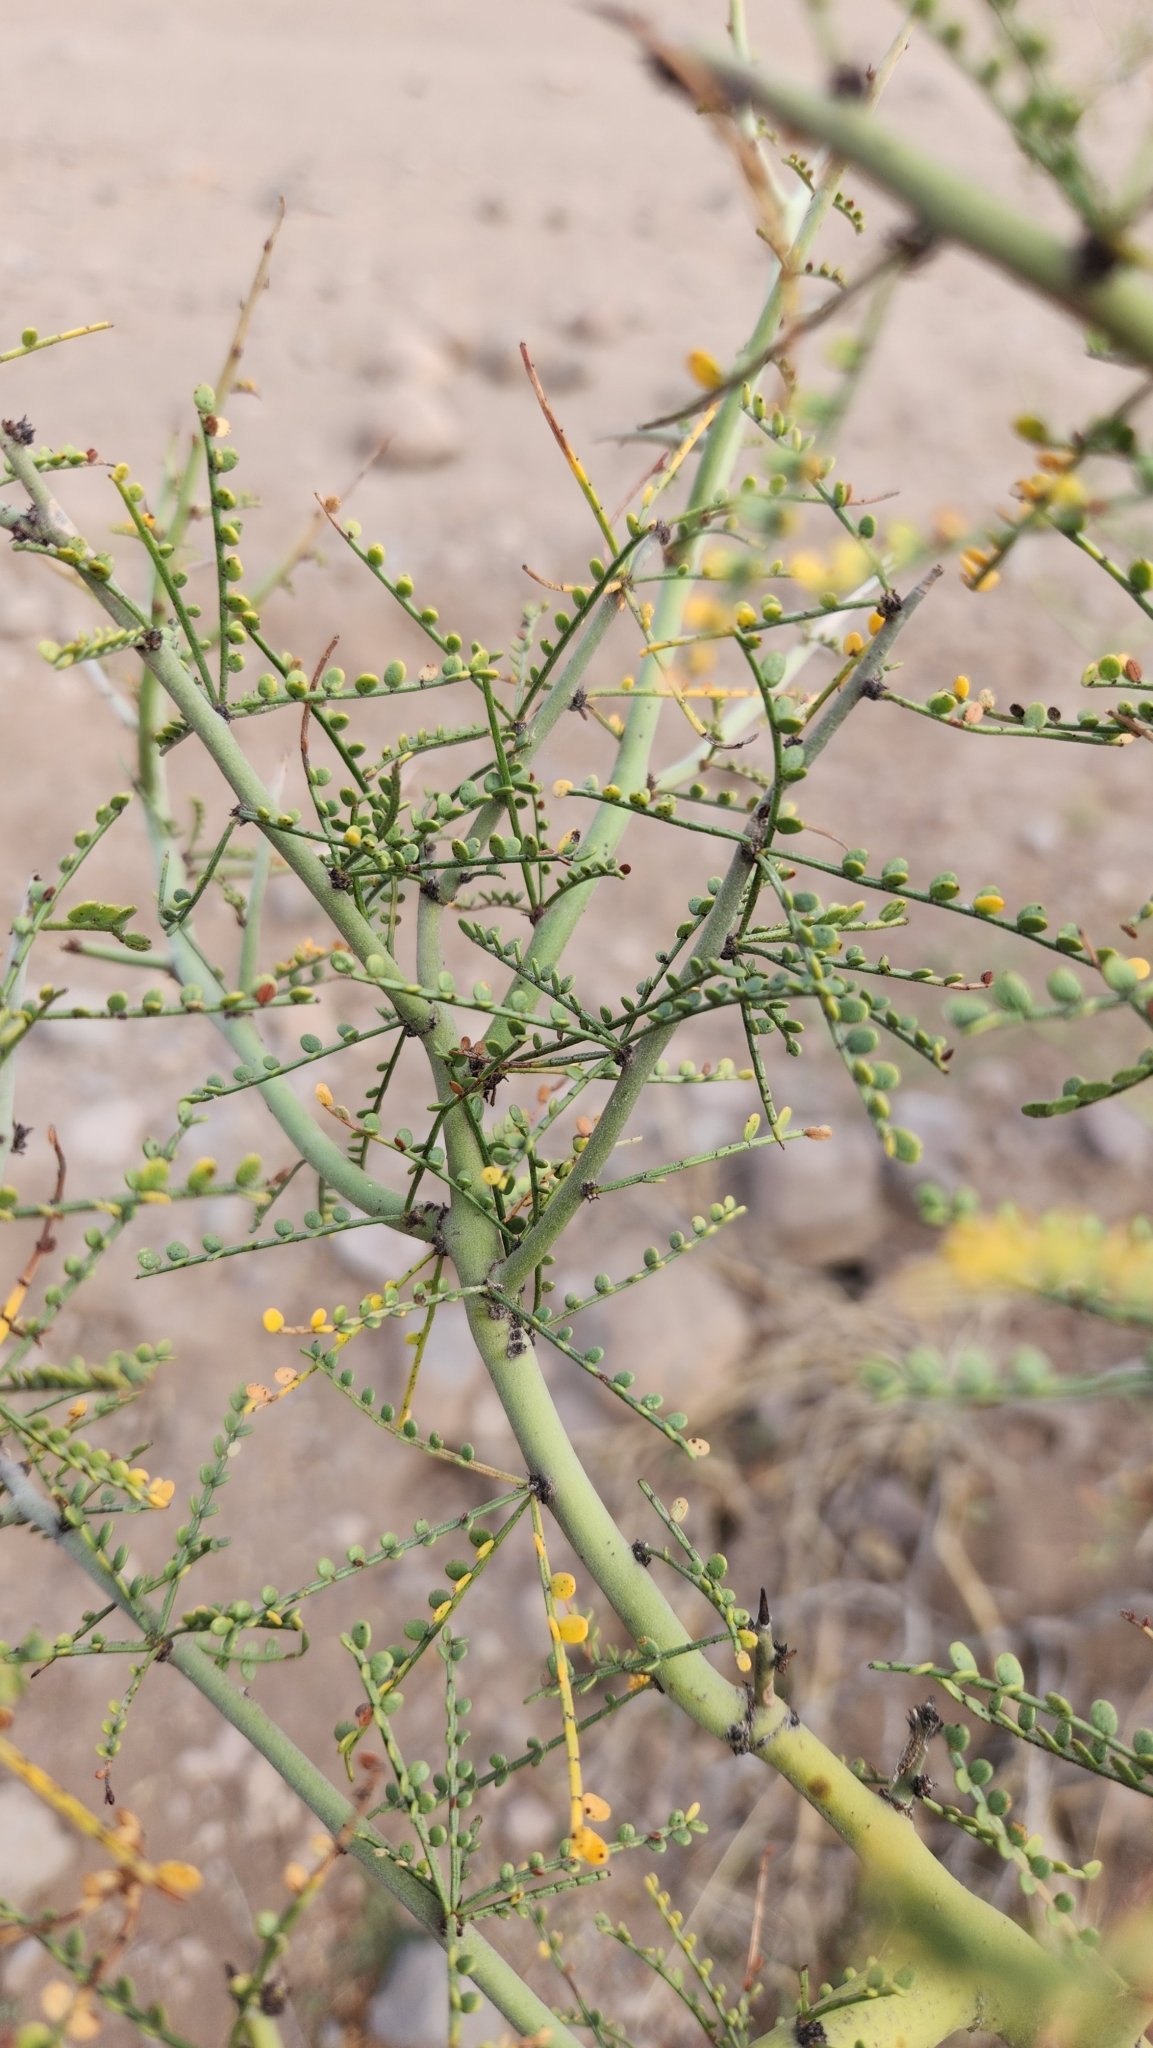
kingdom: Plantae
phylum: Tracheophyta
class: Magnoliopsida
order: Fabales
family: Fabaceae
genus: Parkinsonia
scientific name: Parkinsonia microphylla
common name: Yellow paloverde
